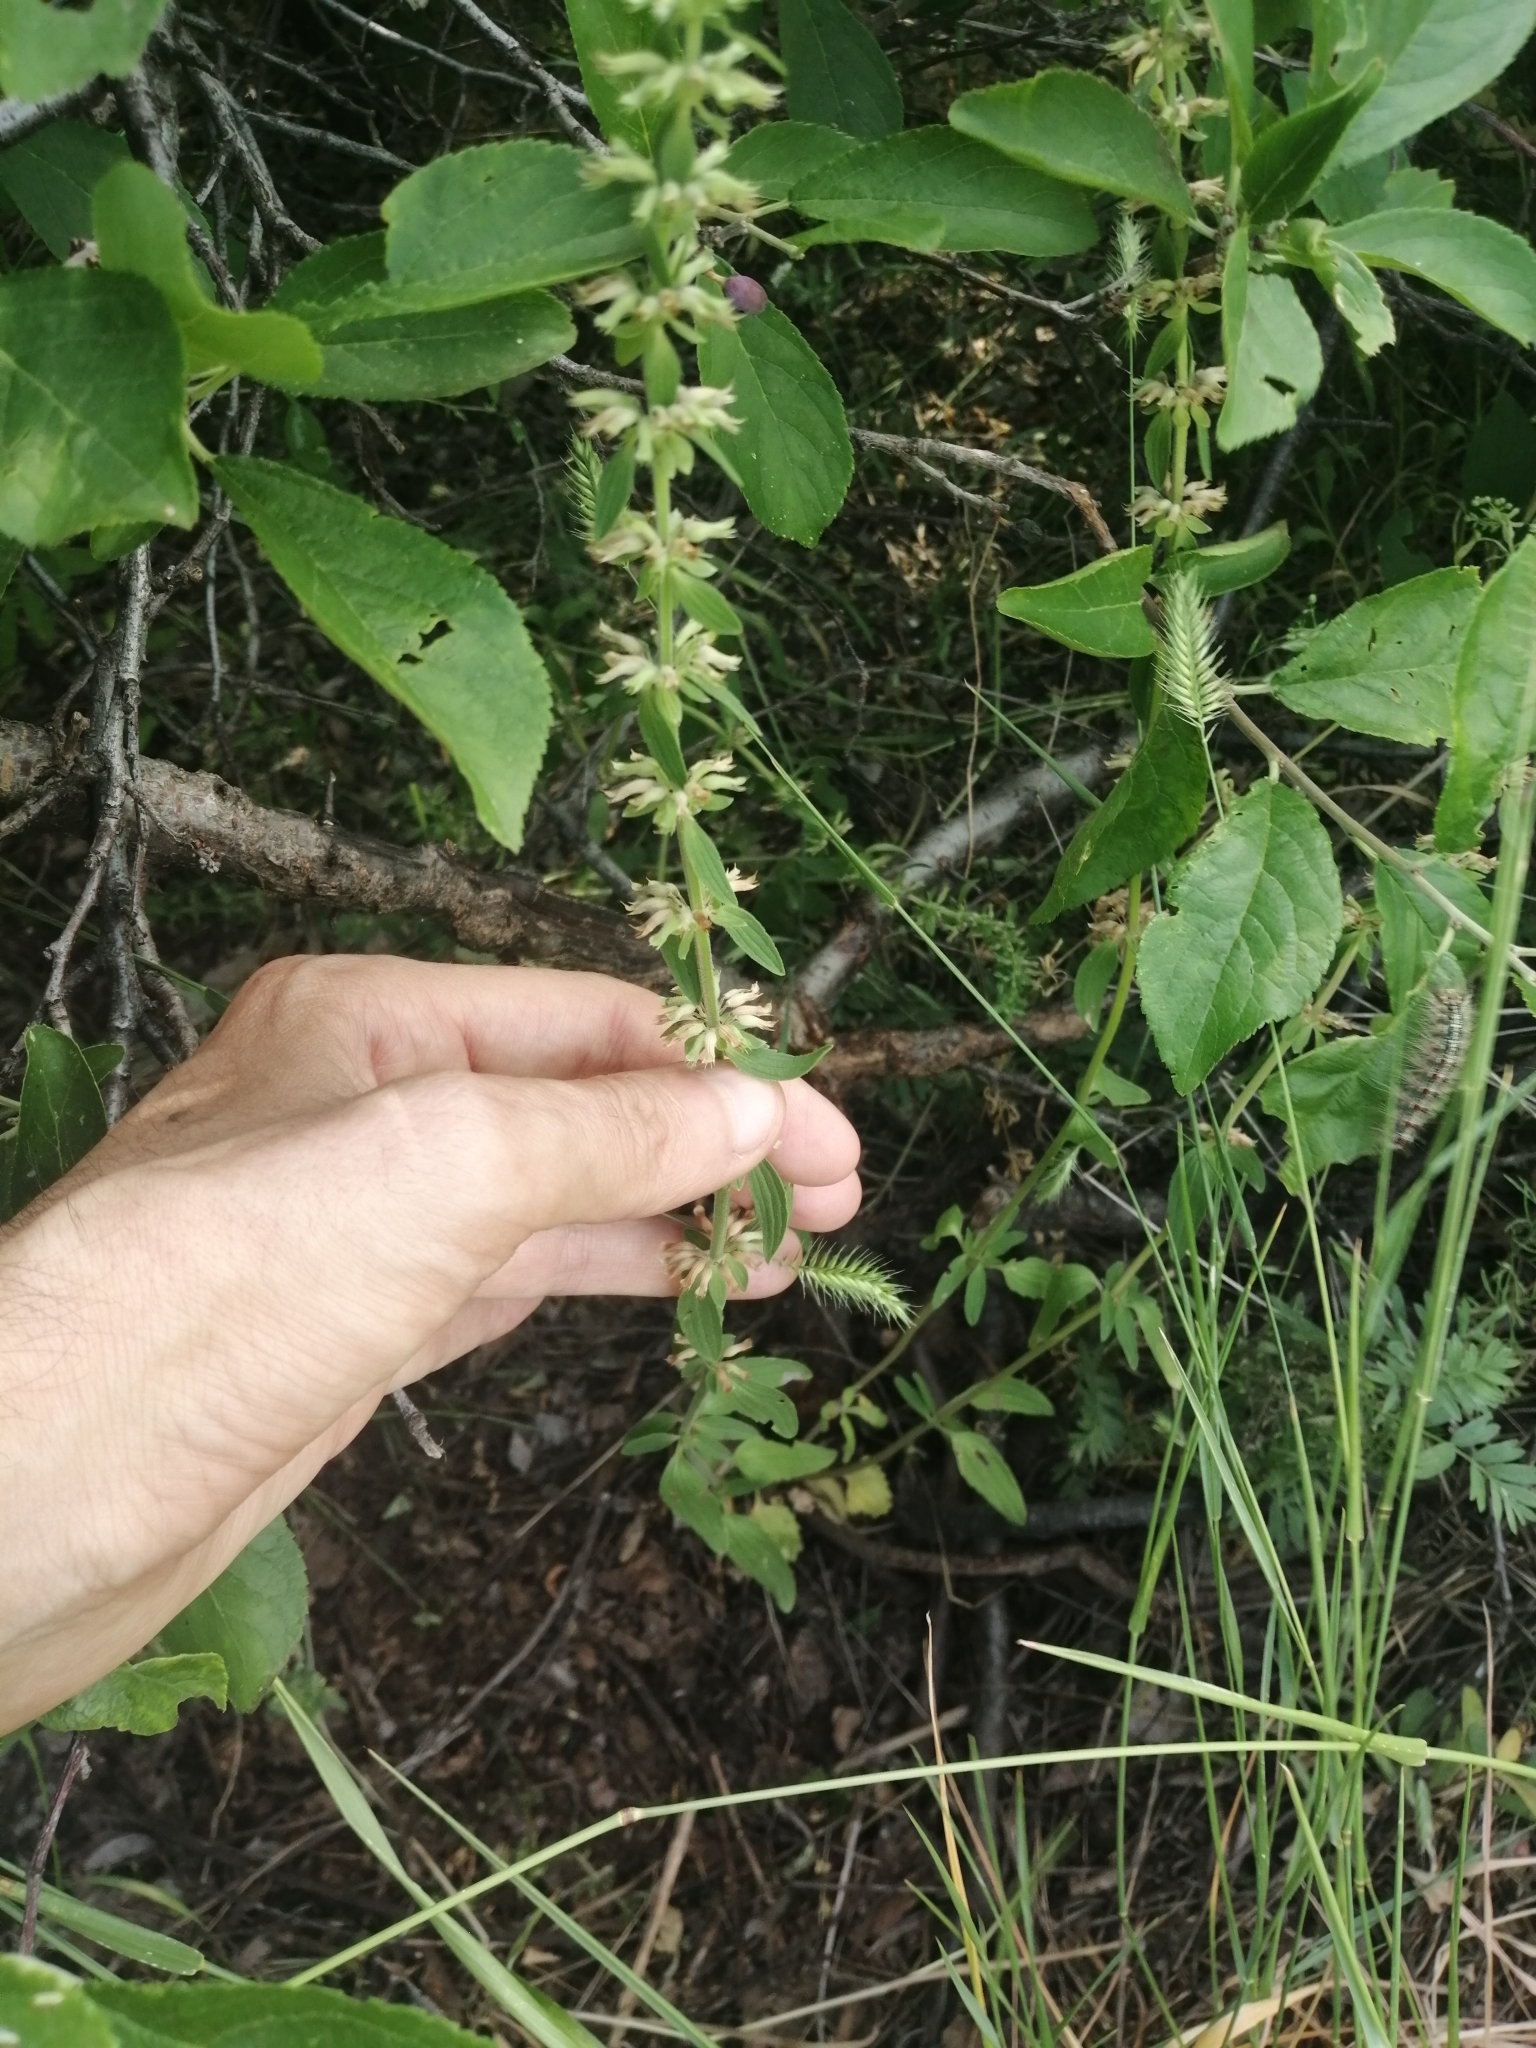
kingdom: Plantae
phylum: Tracheophyta
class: Magnoliopsida
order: Lamiales
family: Lamiaceae
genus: Dracocephalum
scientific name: Dracocephalum thymiflorum
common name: Thymeleaf dragonhead
